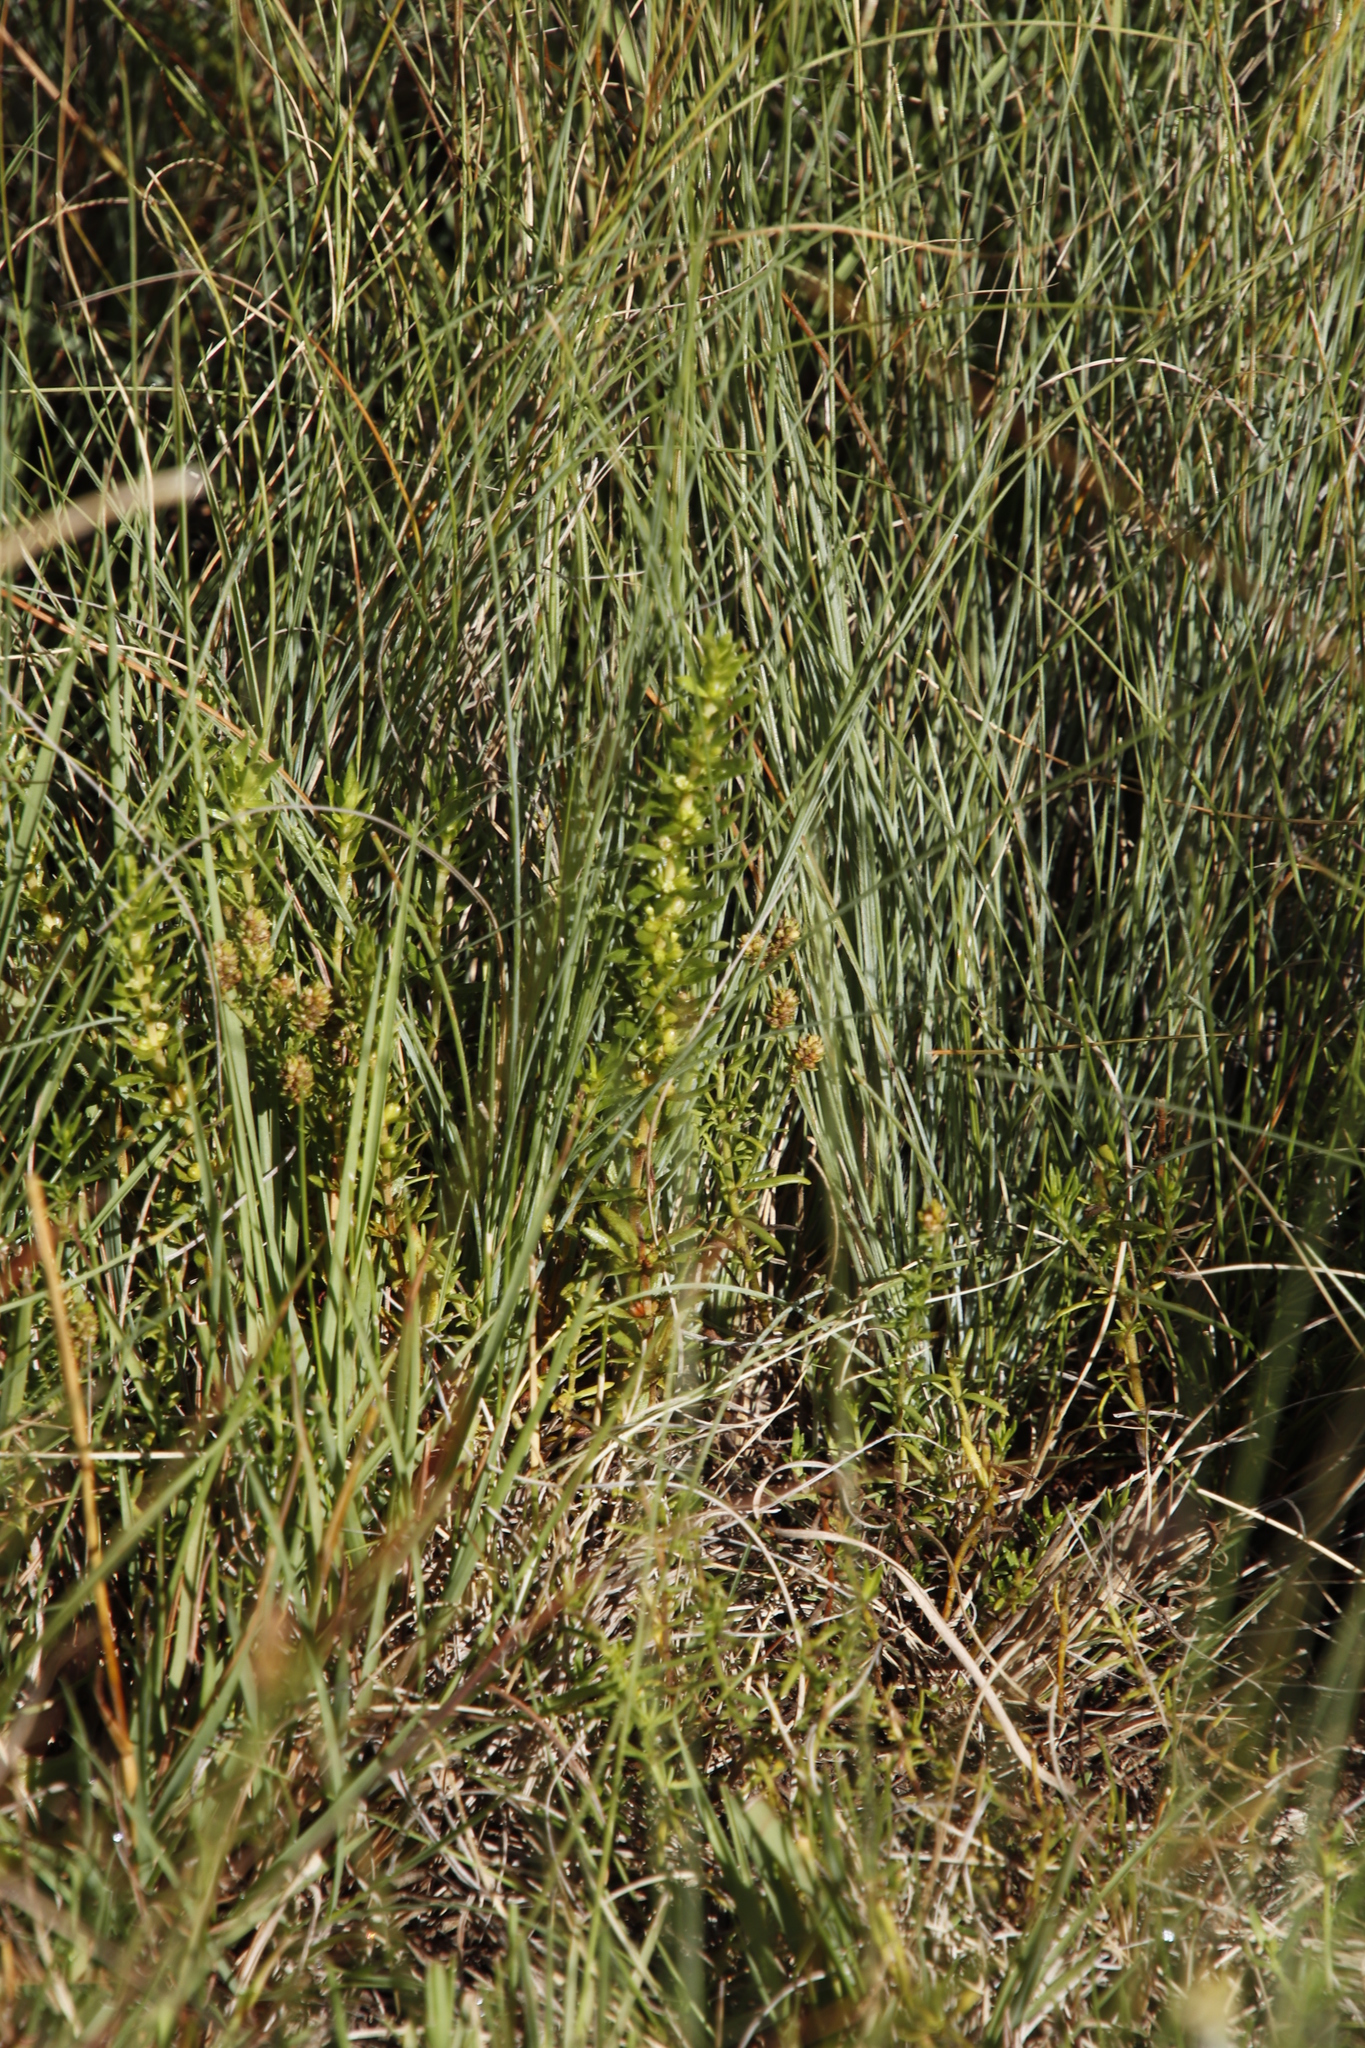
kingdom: Plantae
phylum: Tracheophyta
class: Magnoliopsida
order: Asterales
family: Asteraceae
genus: Felicia
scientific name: Felicia filifolia
